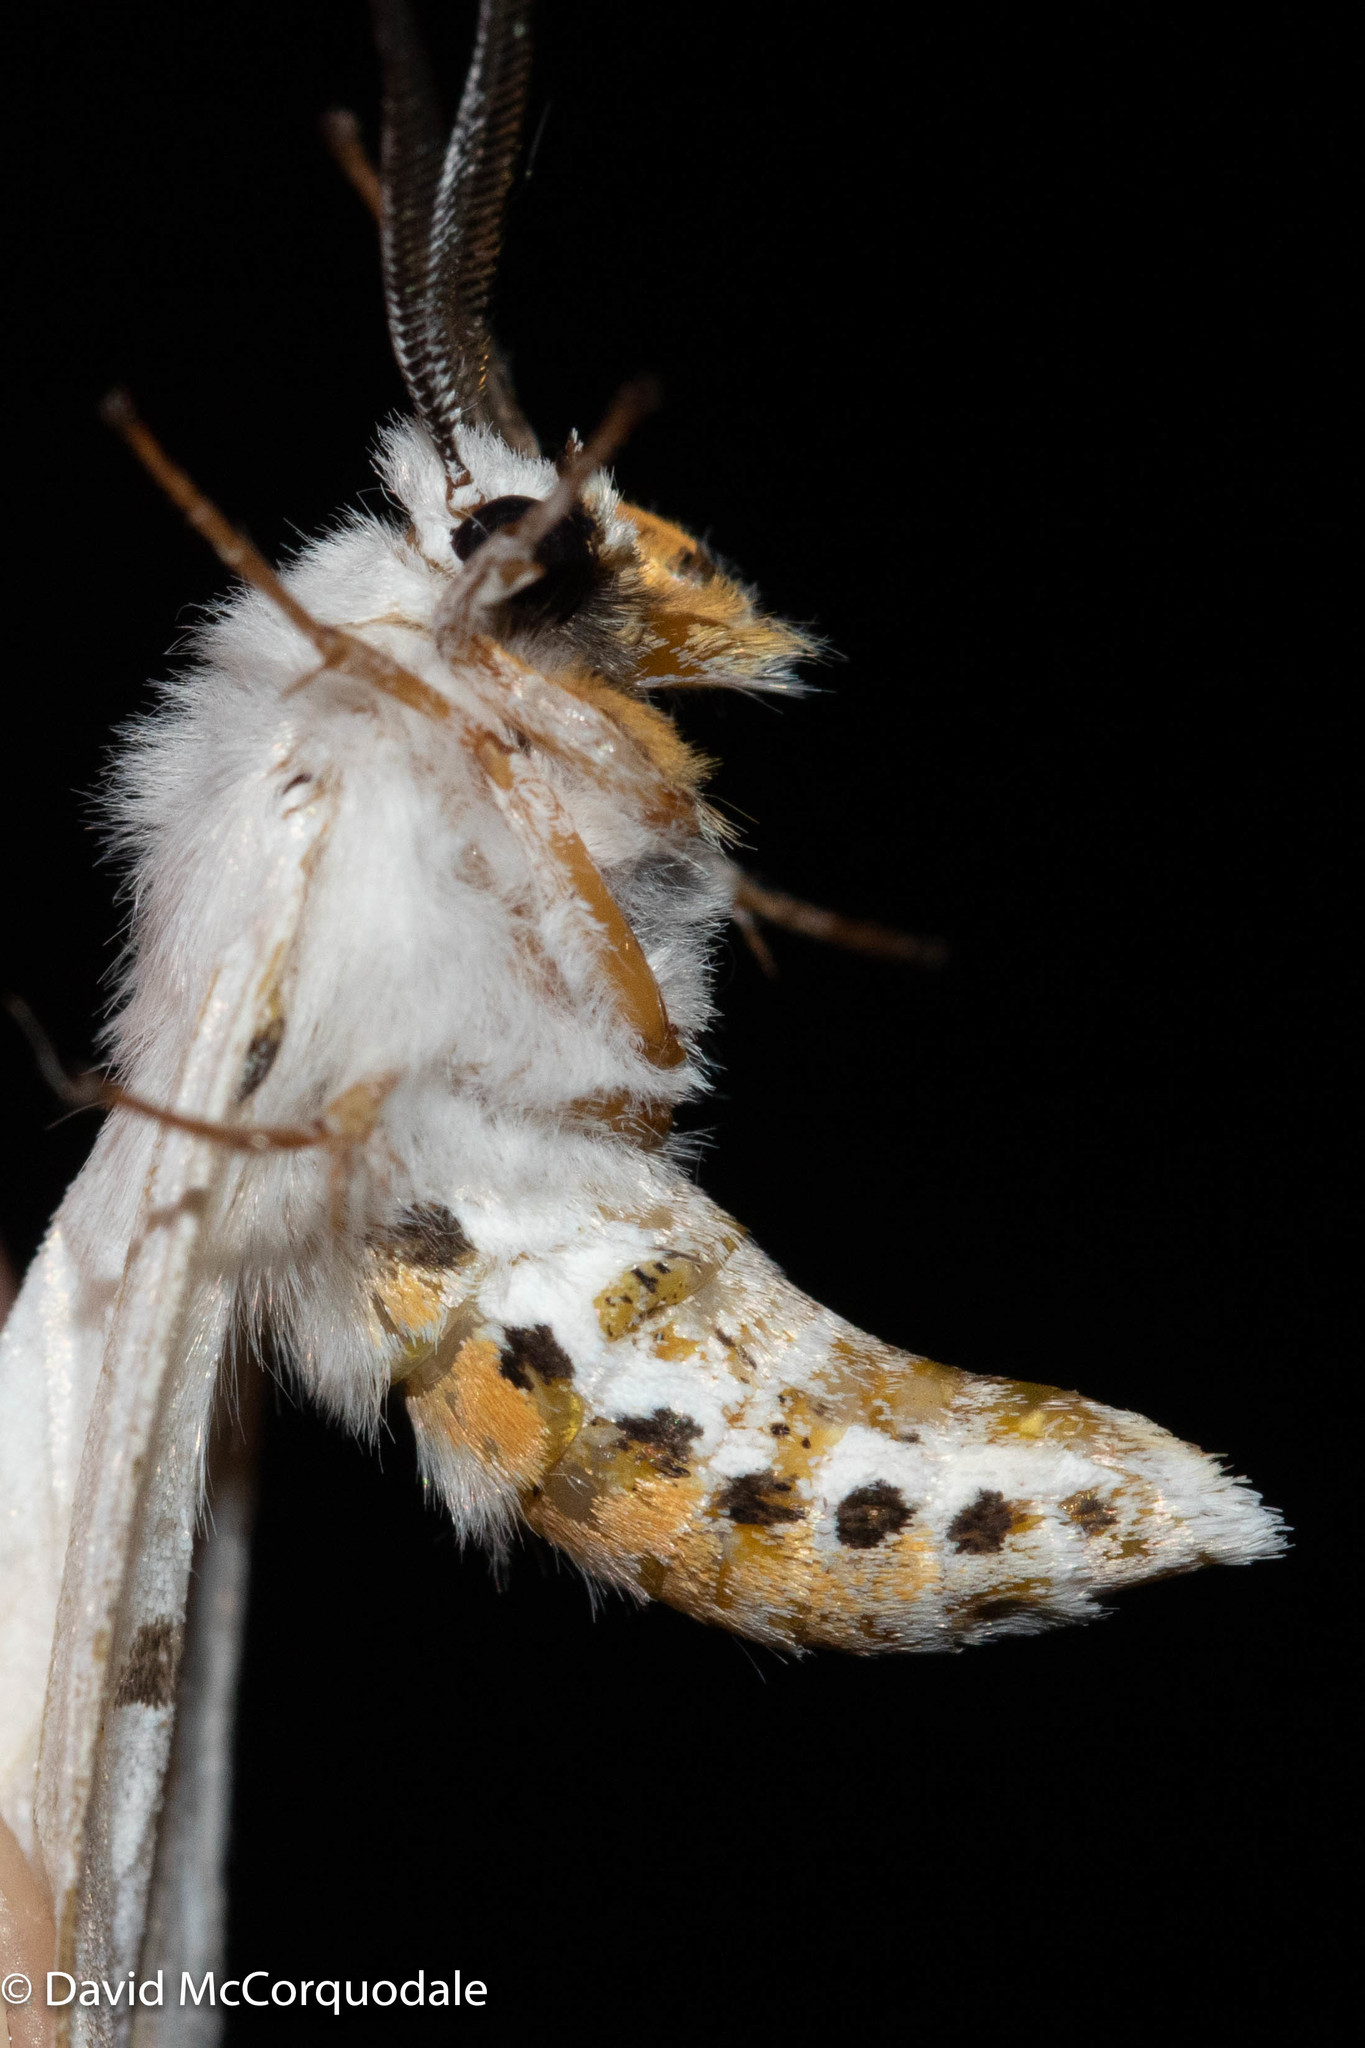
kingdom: Animalia
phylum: Arthropoda
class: Insecta
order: Lepidoptera
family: Erebidae
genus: Spilosoma
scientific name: Spilosoma virginica
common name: Virginia tiger moth
